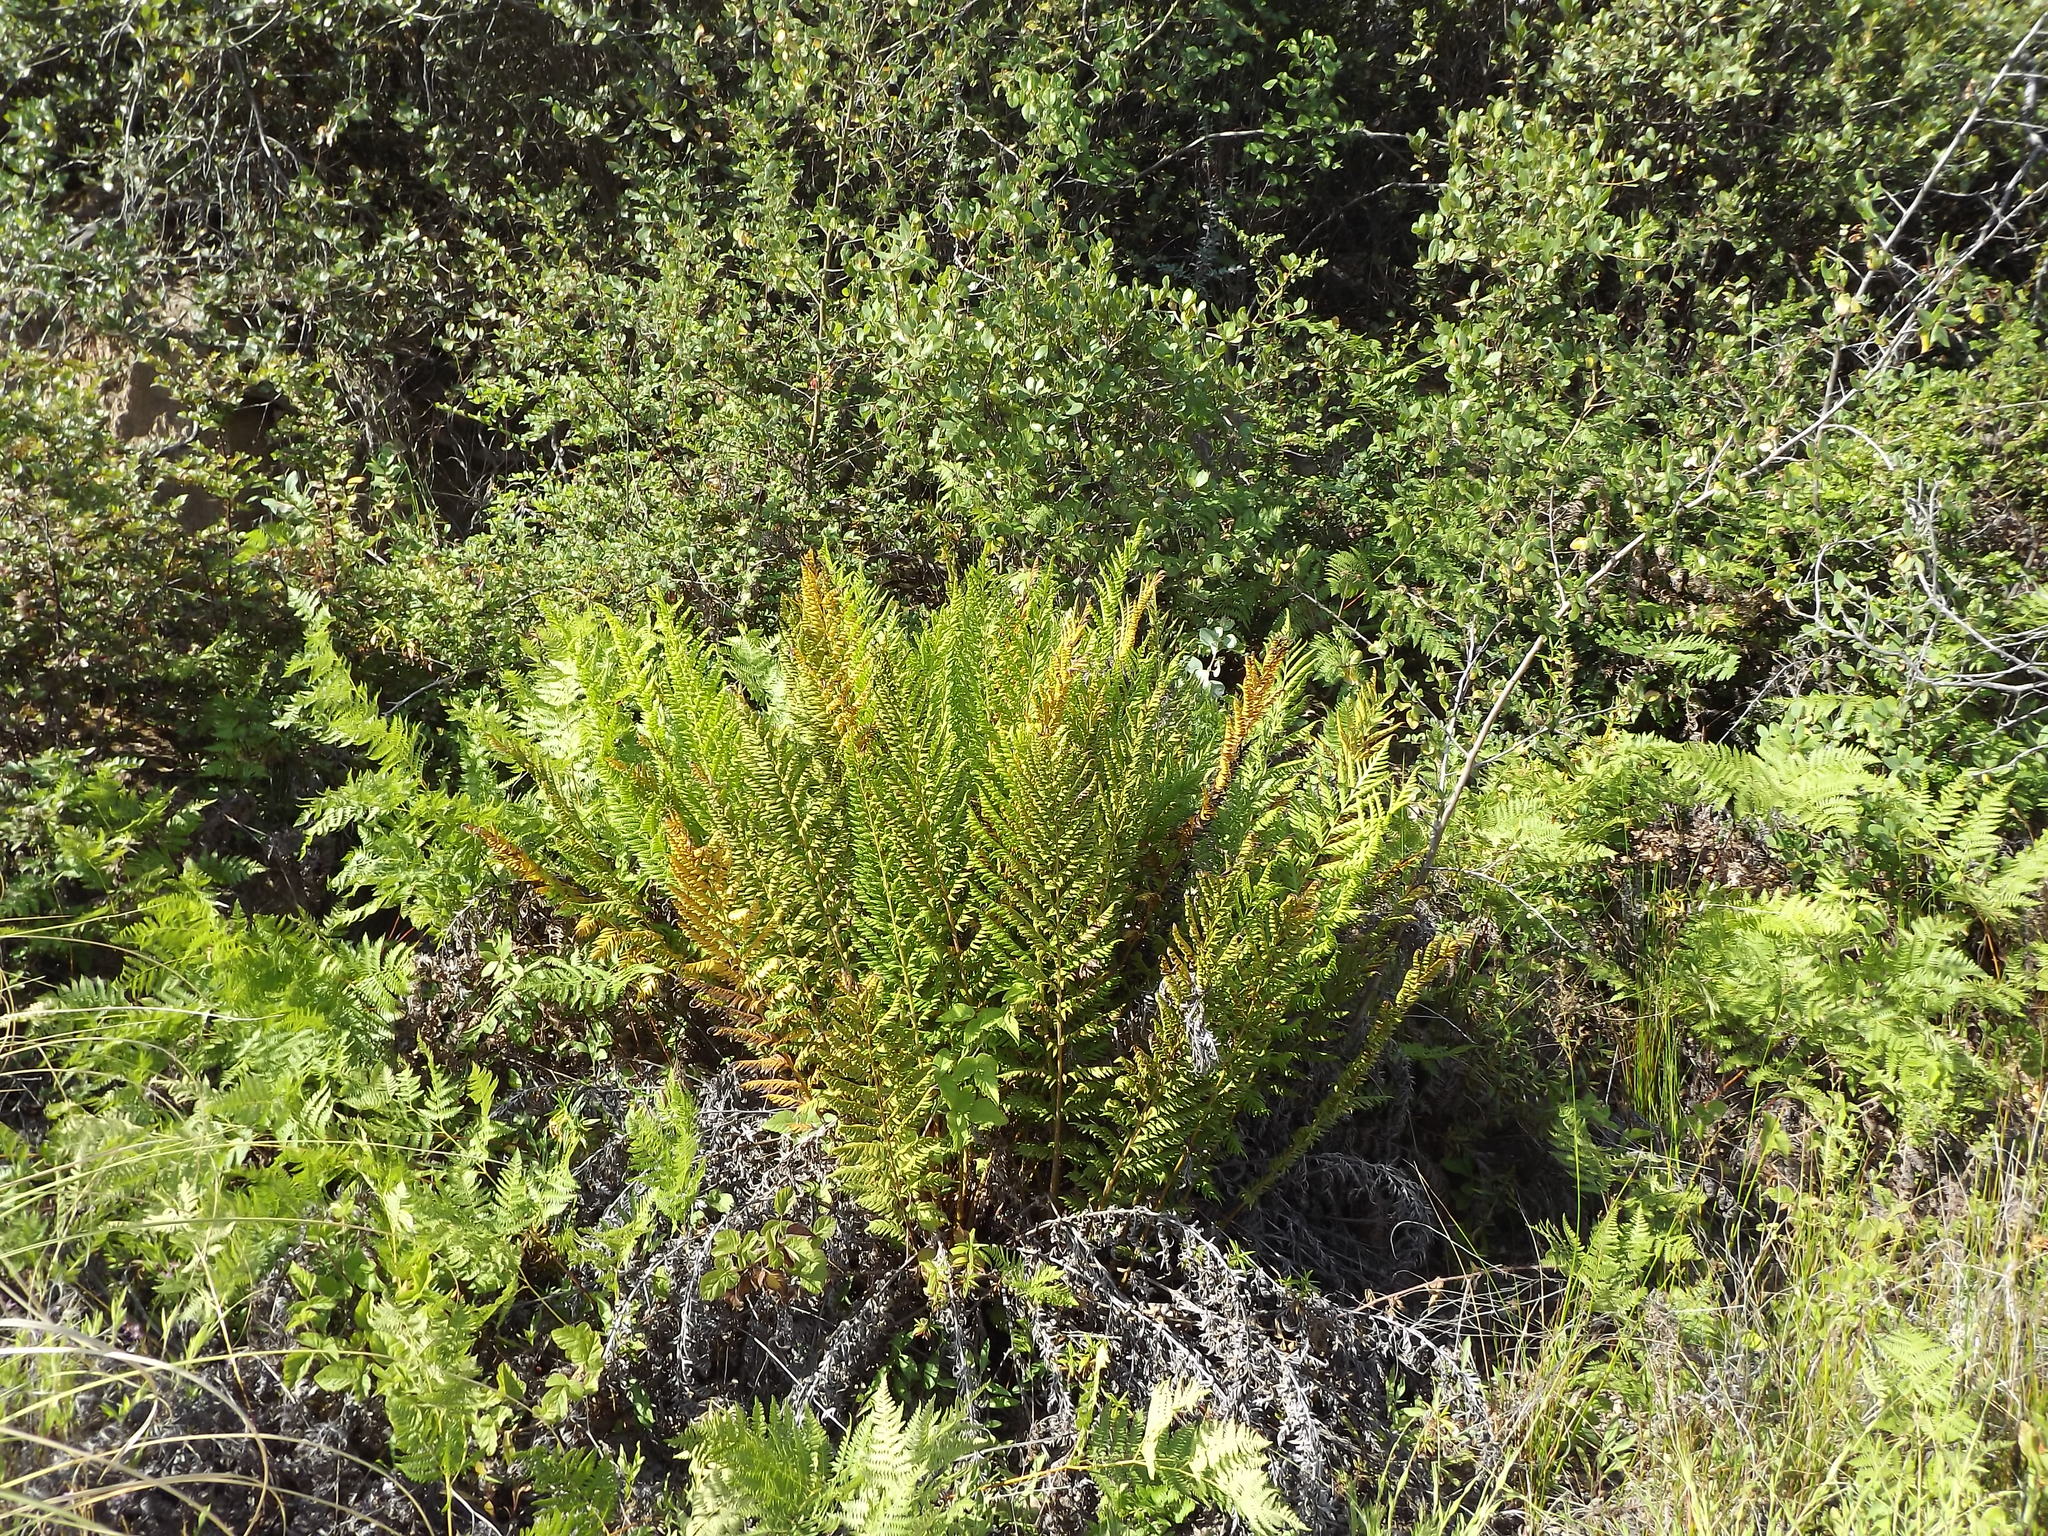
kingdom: Plantae
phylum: Tracheophyta
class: Polypodiopsida
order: Polypodiales
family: Blechnaceae
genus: Woodwardia
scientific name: Woodwardia fimbriata
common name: Giant chain fern
